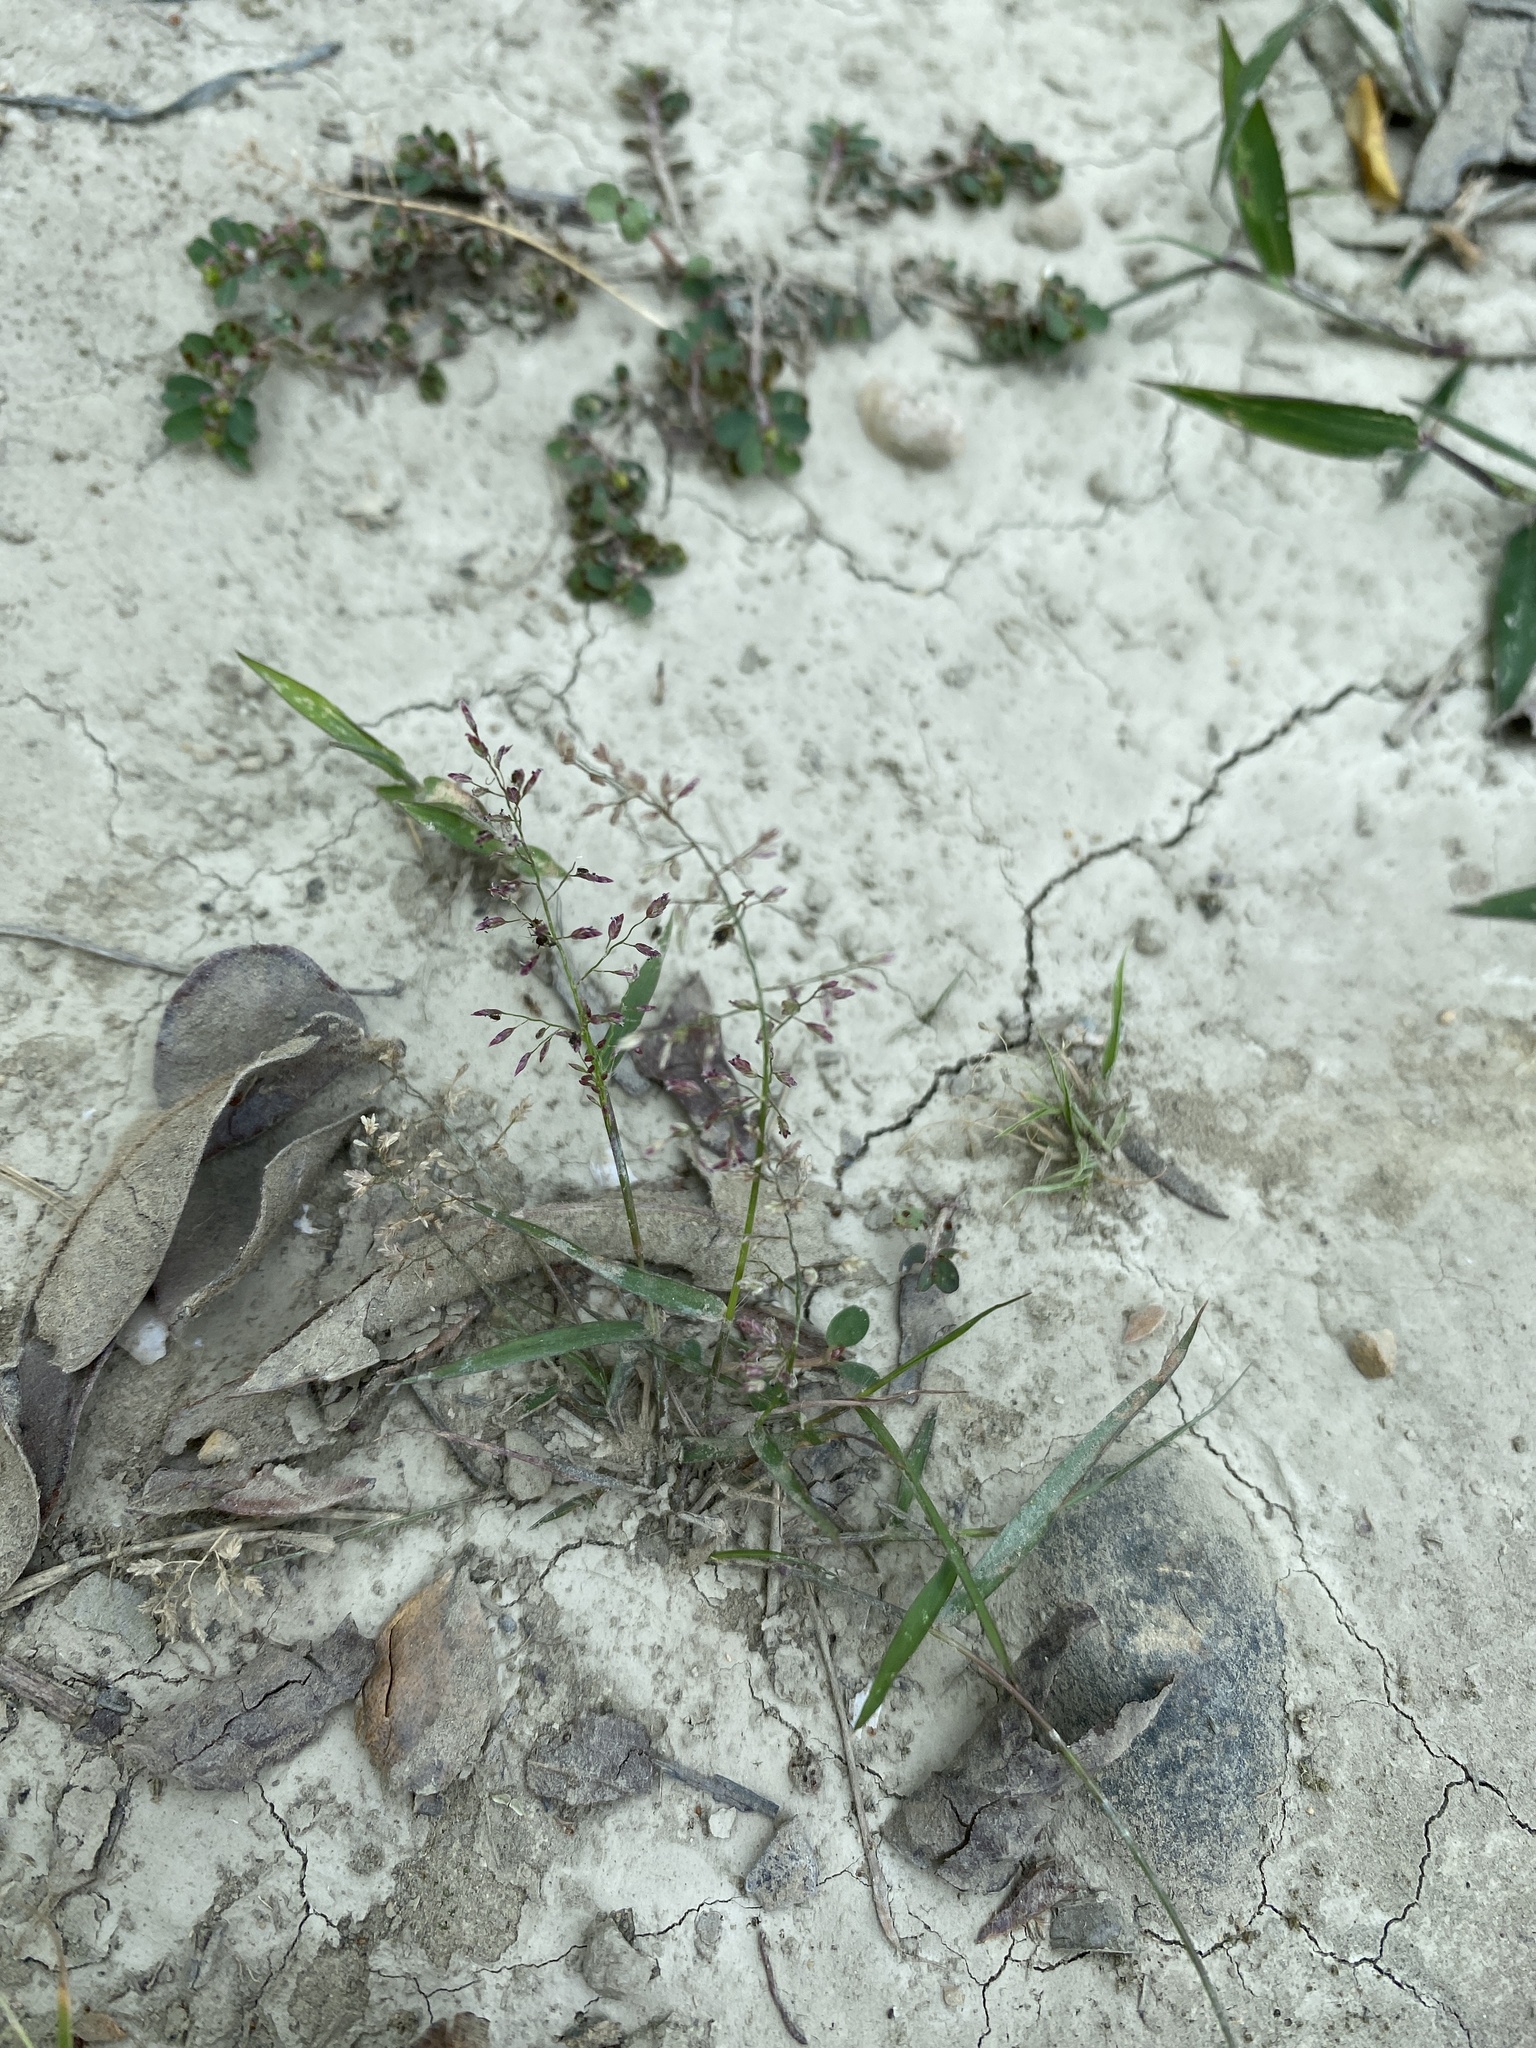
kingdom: Plantae
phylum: Tracheophyta
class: Liliopsida
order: Poales
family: Poaceae
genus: Eragrostis
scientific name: Eragrostis tenella
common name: Japanese lovegrass
